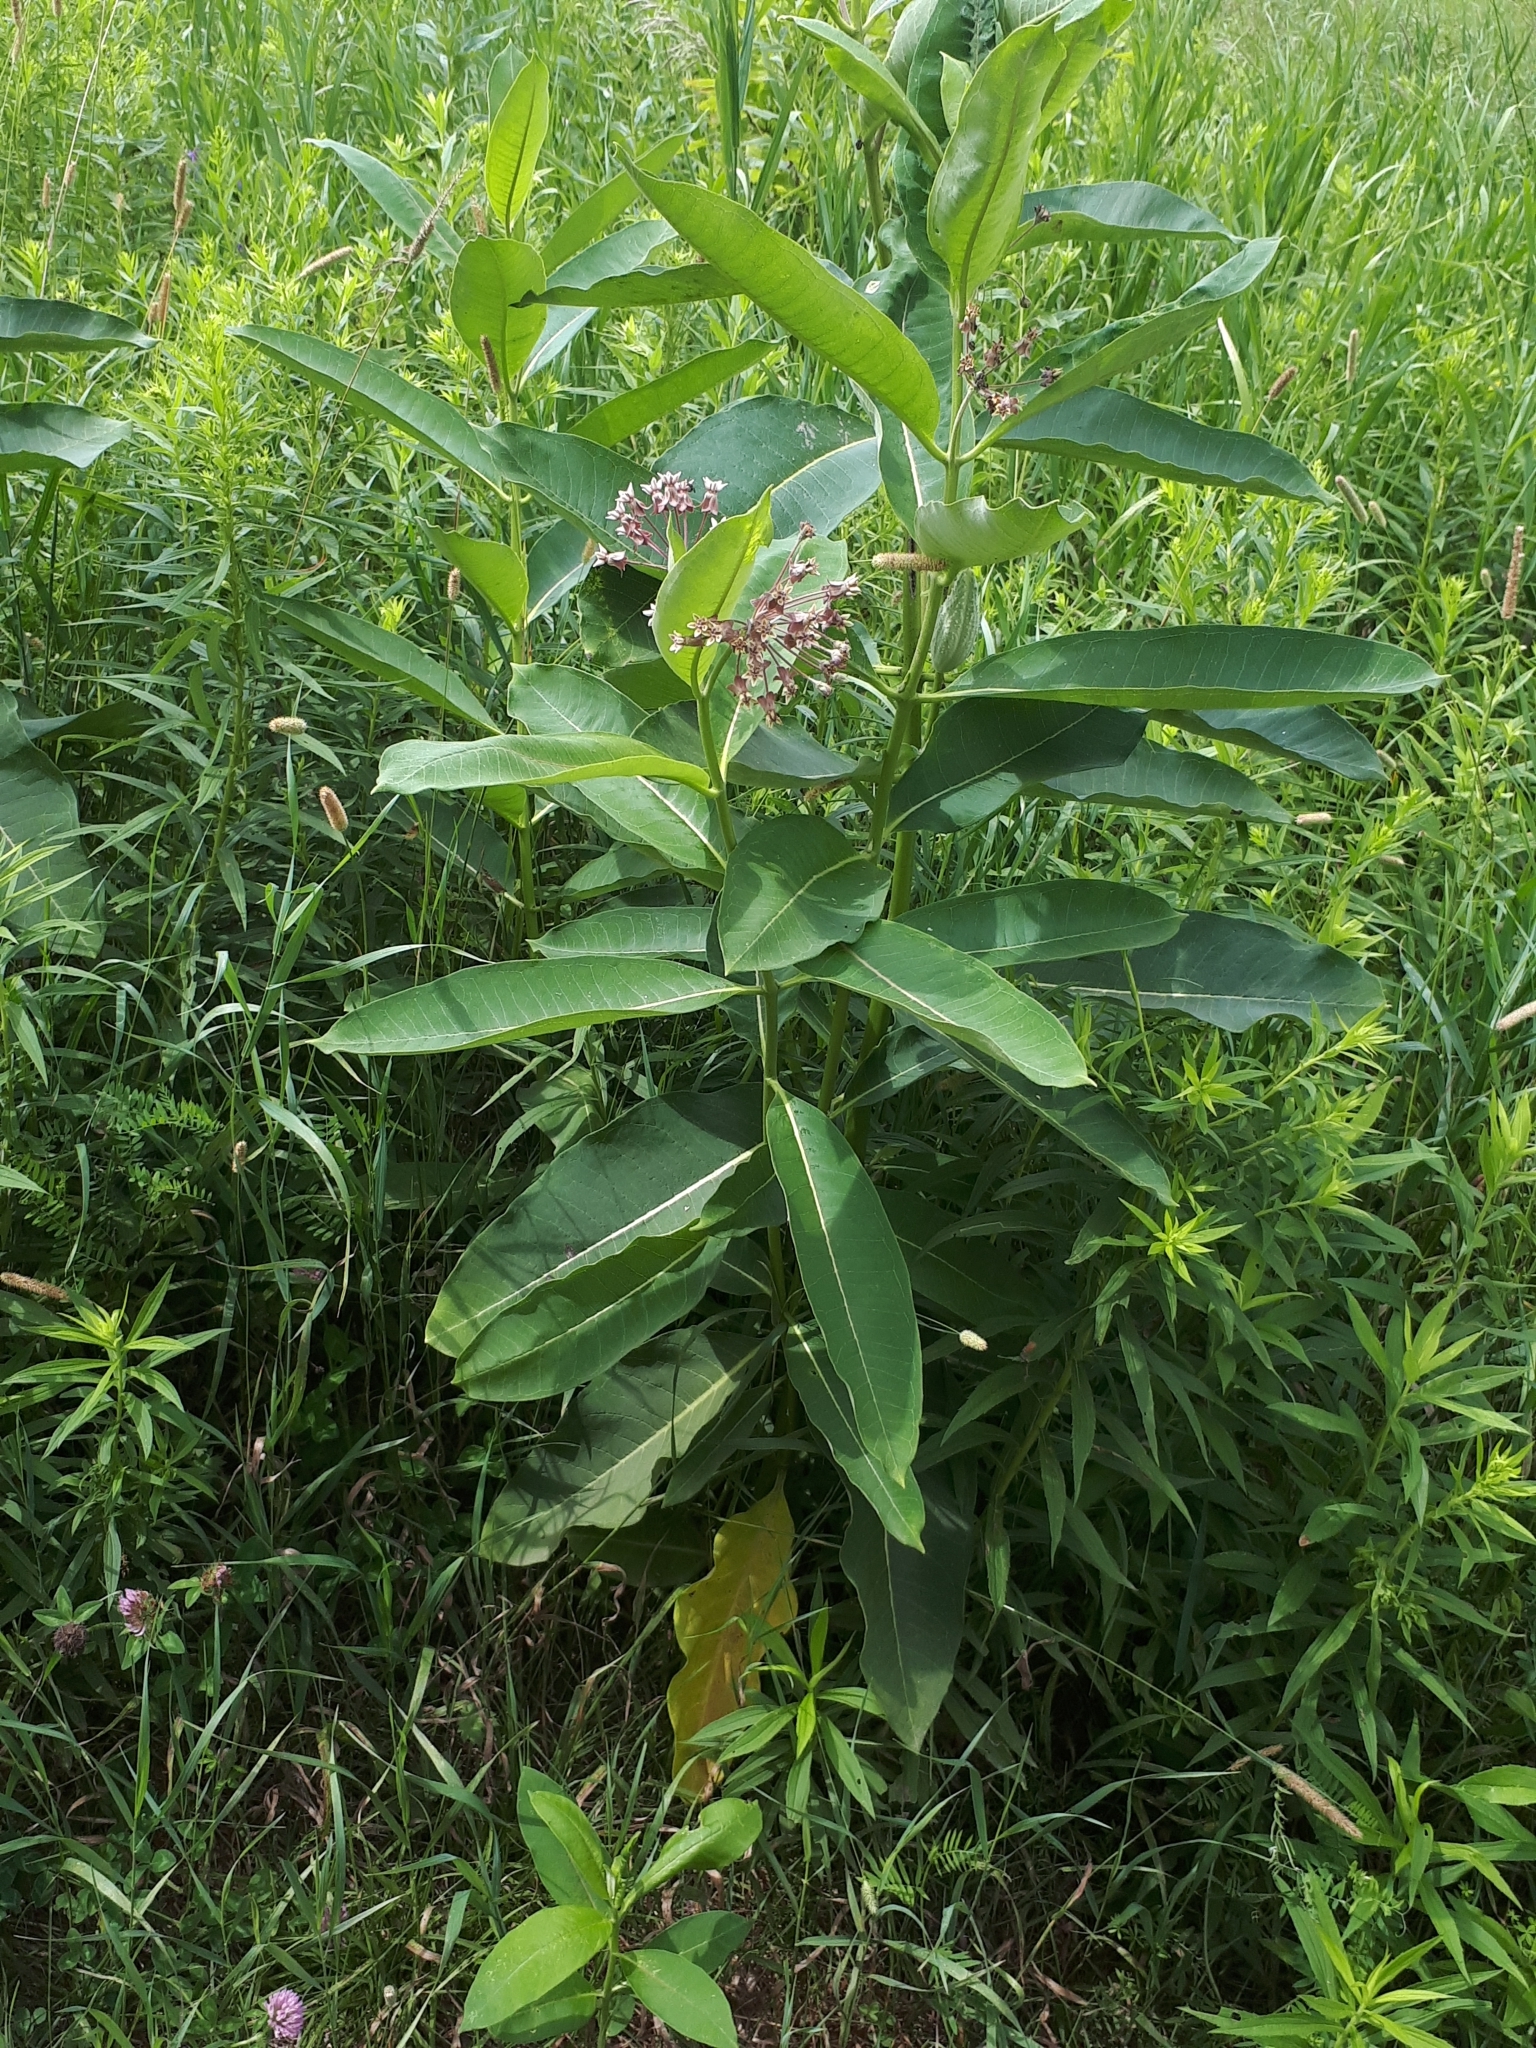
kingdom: Plantae
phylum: Tracheophyta
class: Magnoliopsida
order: Gentianales
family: Apocynaceae
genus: Asclepias
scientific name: Asclepias syriaca
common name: Common milkweed
